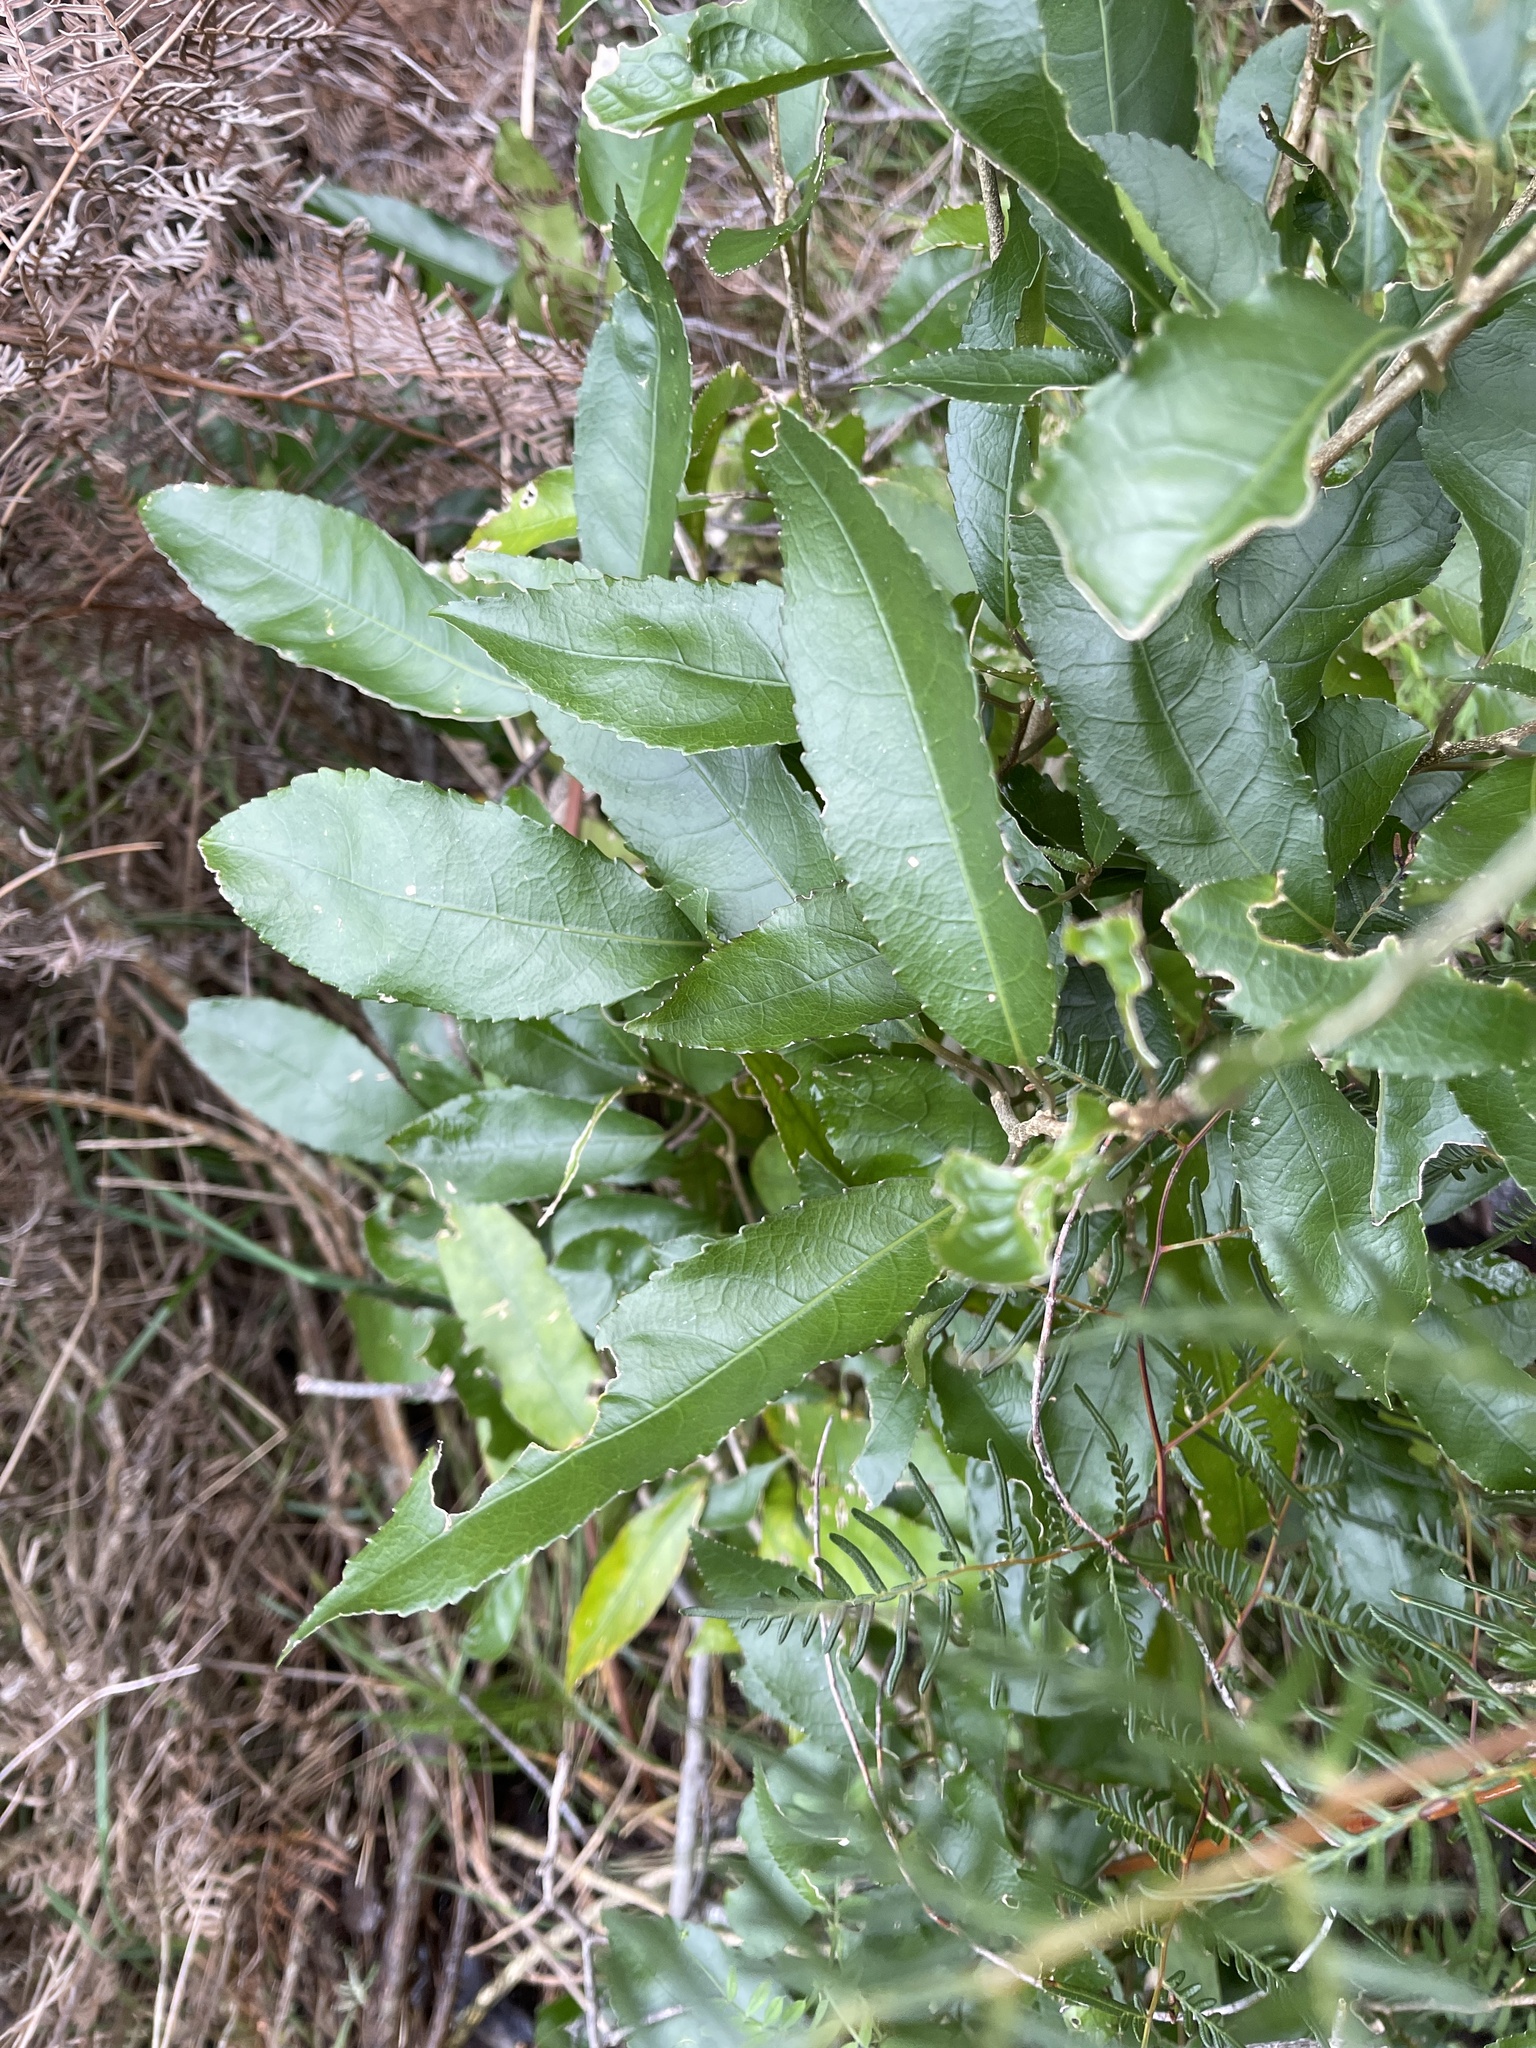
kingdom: Plantae
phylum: Tracheophyta
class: Magnoliopsida
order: Malpighiales
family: Violaceae
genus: Melicytus
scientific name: Melicytus ramiflorus
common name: Mahoe
